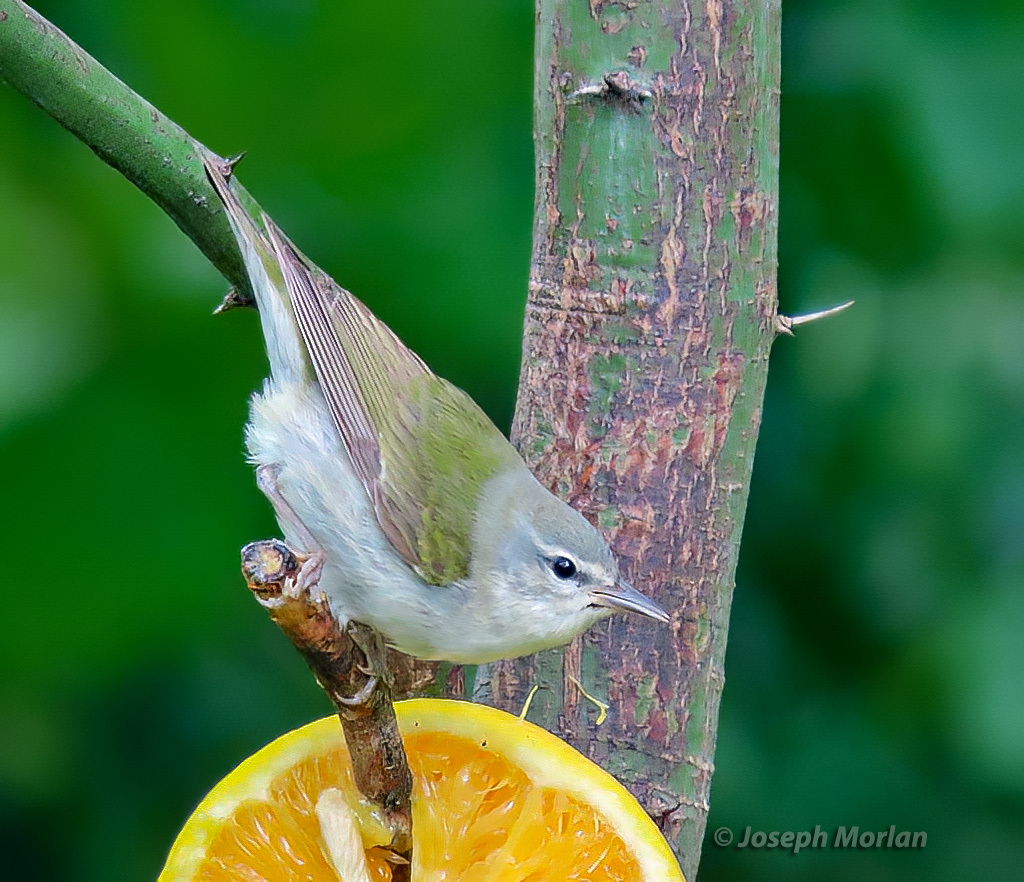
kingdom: Animalia
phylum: Chordata
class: Aves
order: Passeriformes
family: Parulidae
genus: Leiothlypis
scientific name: Leiothlypis peregrina
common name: Tennessee warbler
